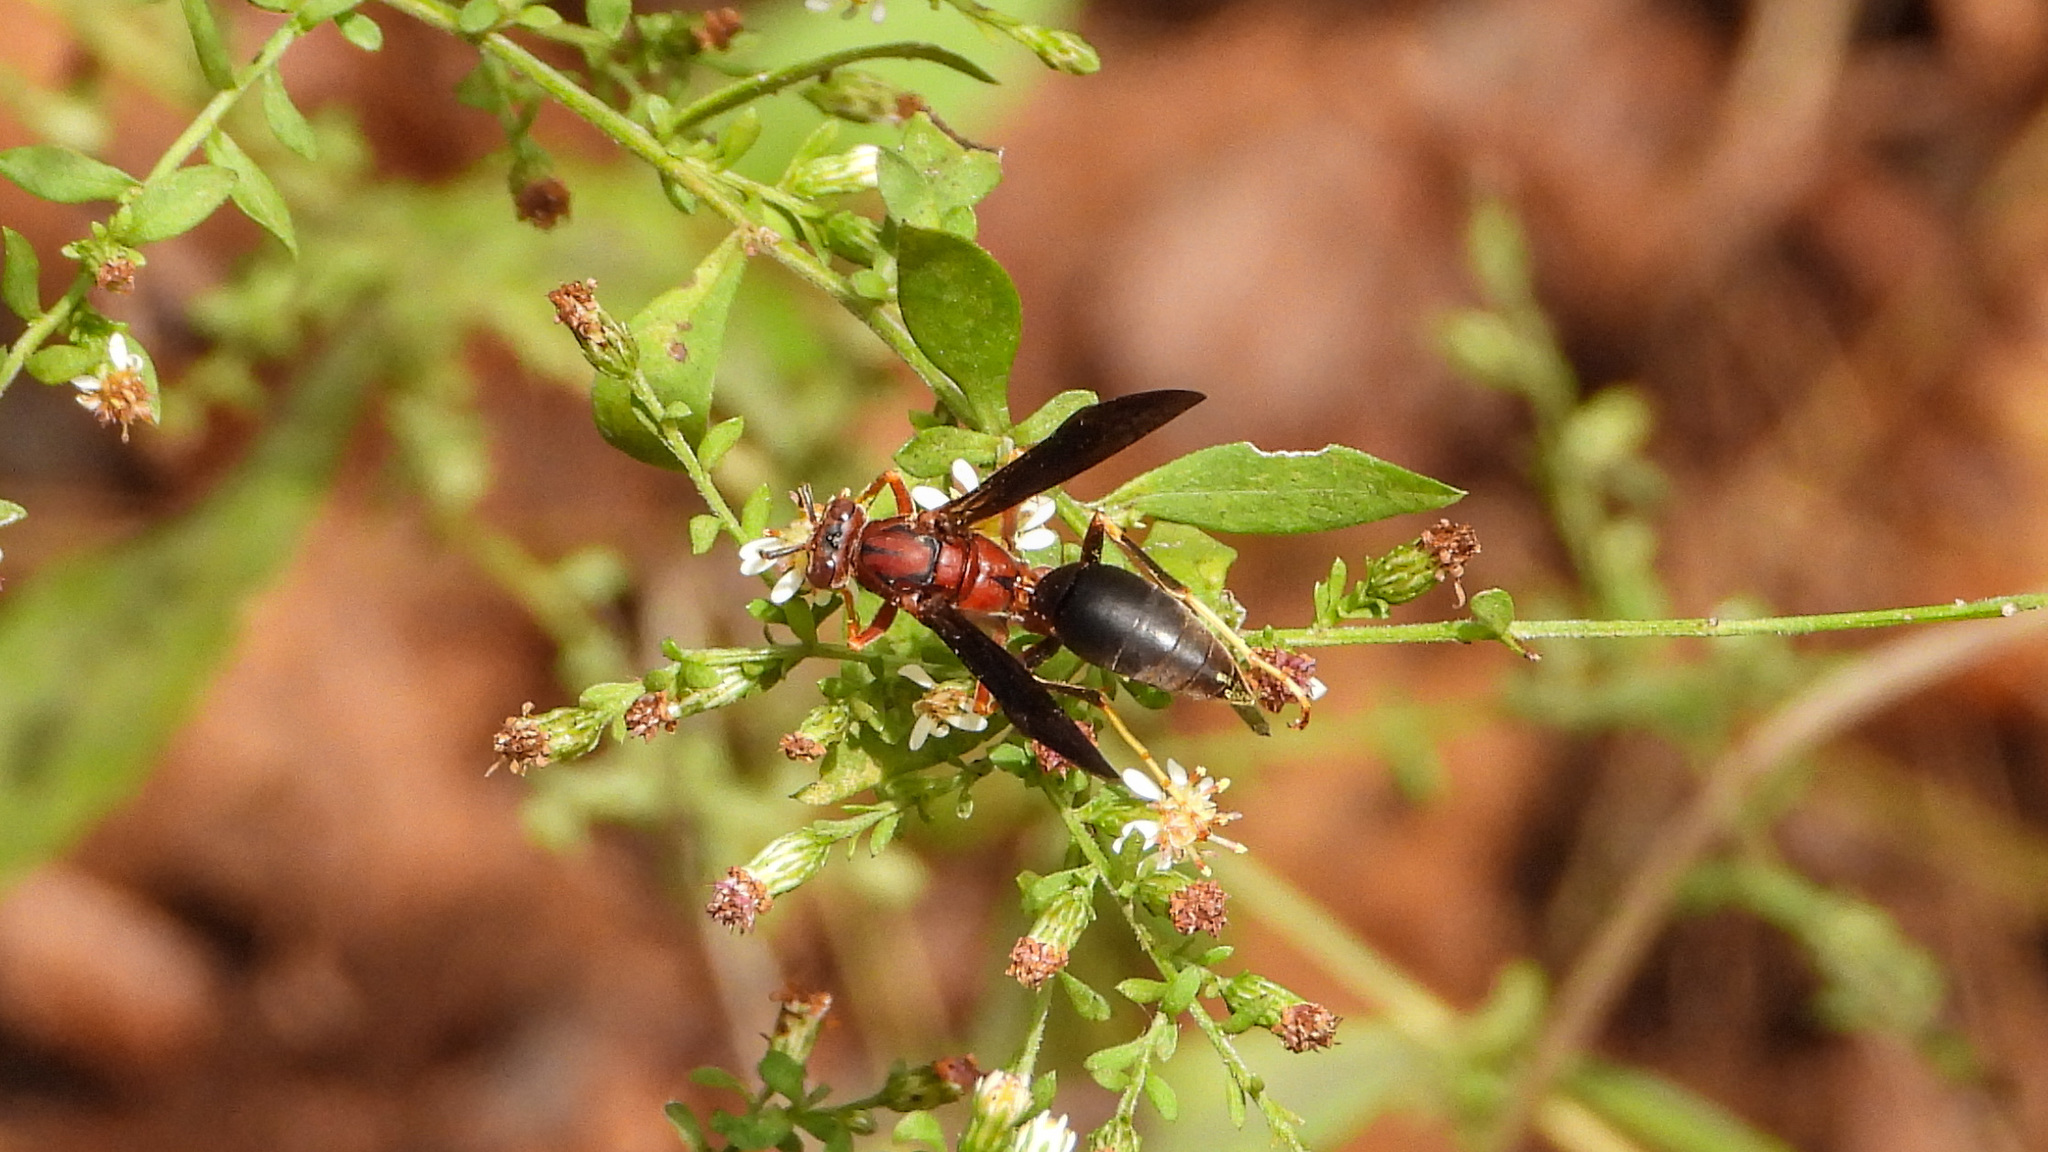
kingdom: Animalia
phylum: Arthropoda
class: Insecta
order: Hymenoptera
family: Eumenidae
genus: Polistes
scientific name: Polistes metricus
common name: Metric paper wasp
